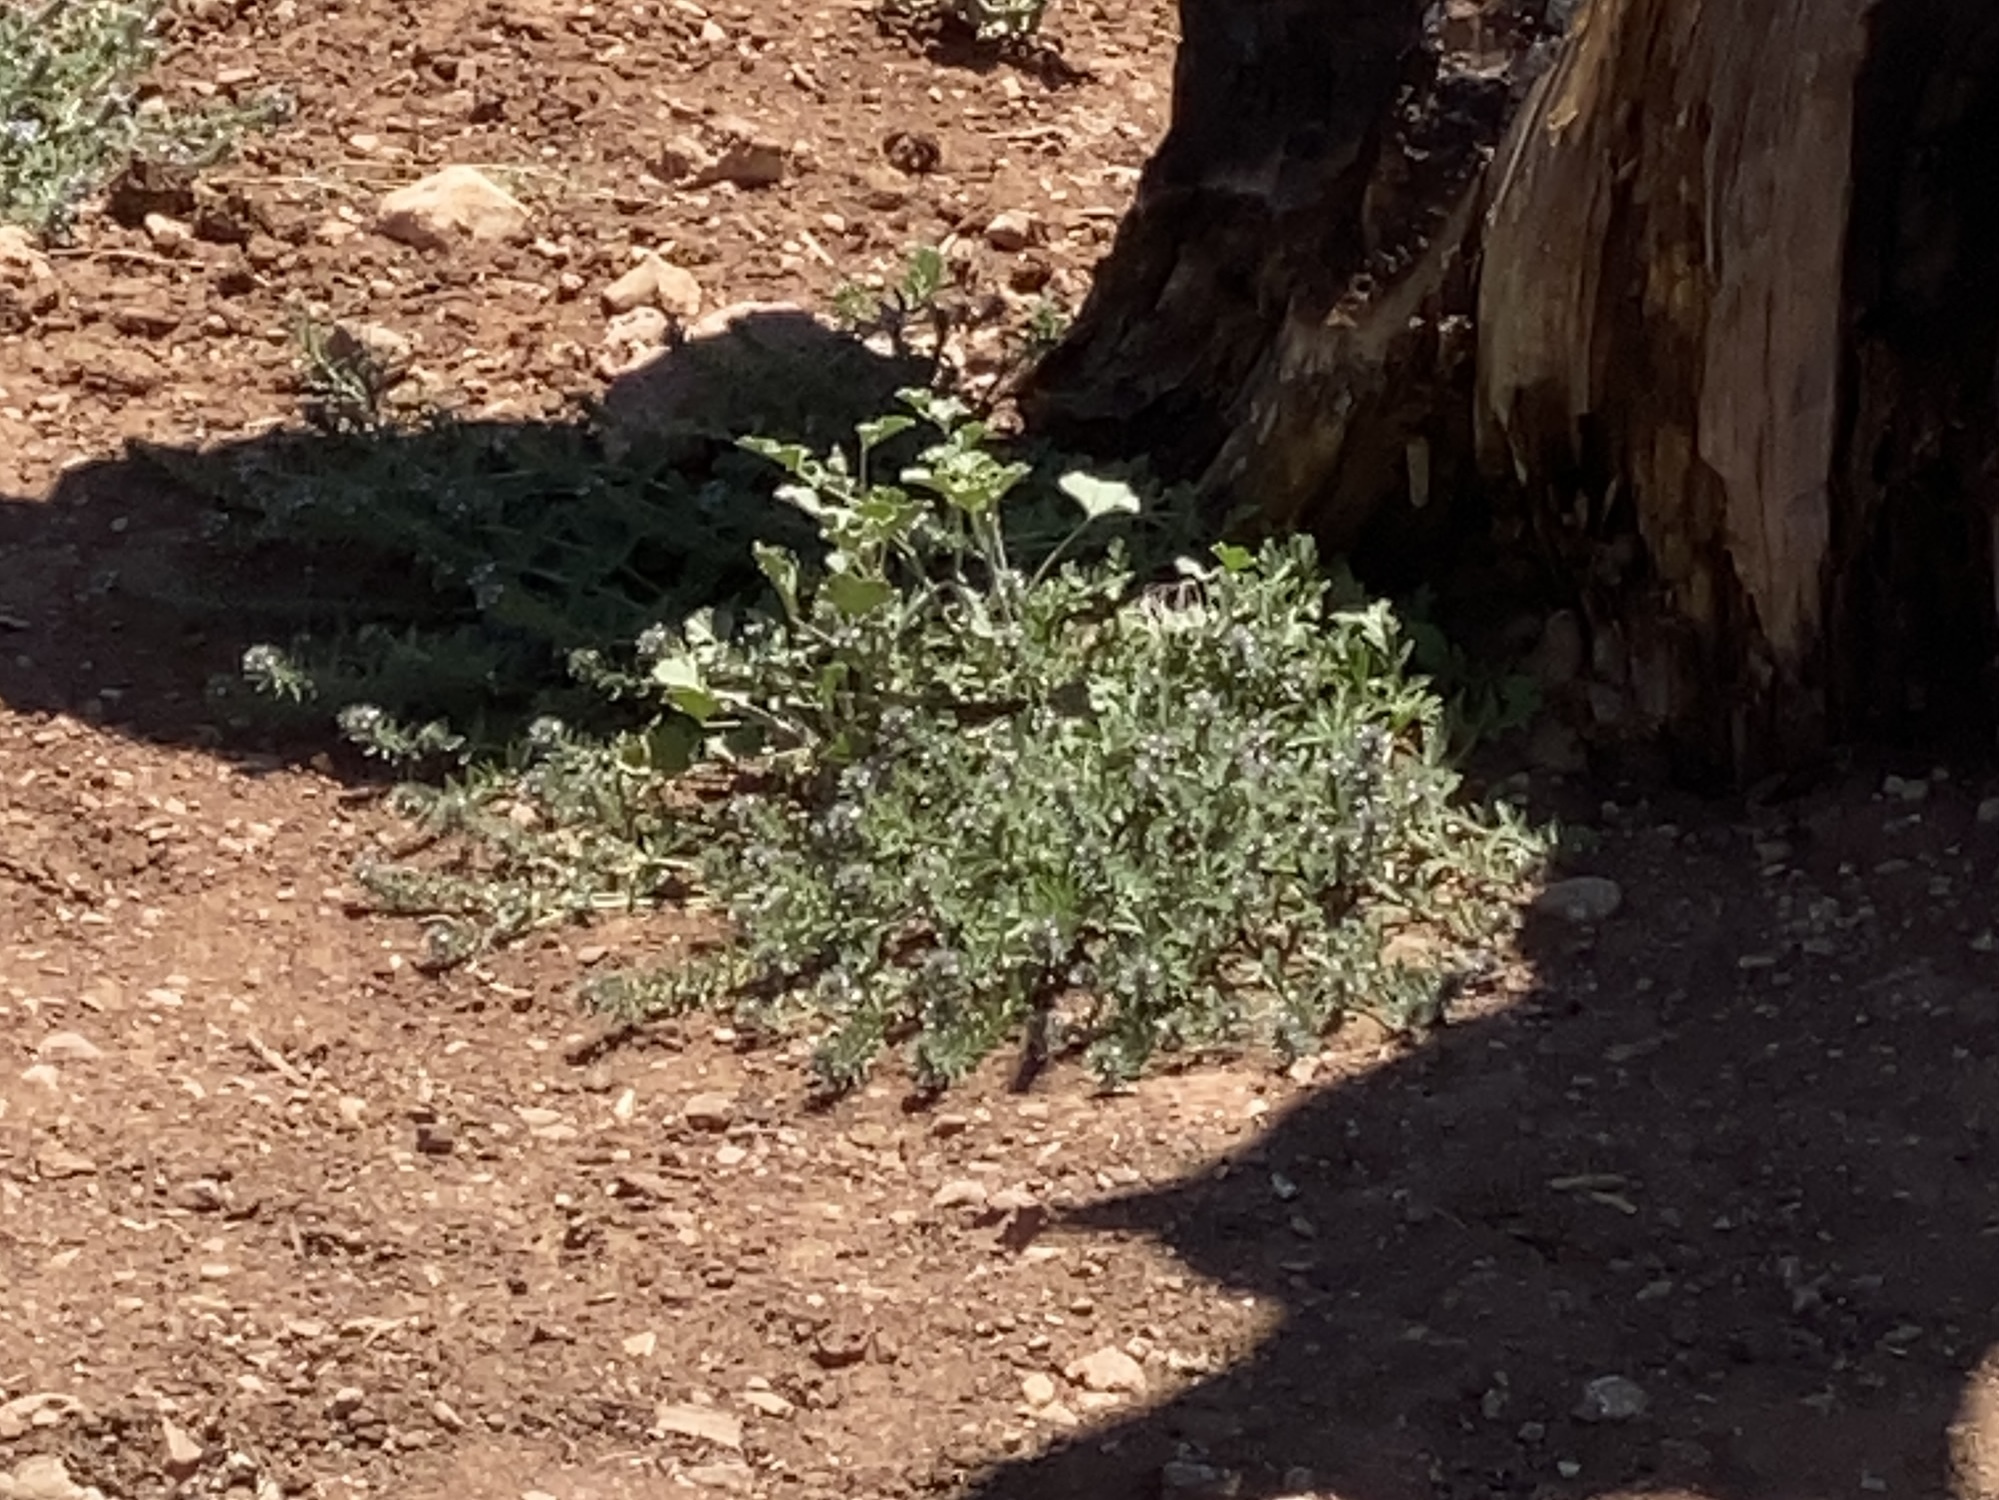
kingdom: Plantae
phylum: Tracheophyta
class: Magnoliopsida
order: Lamiales
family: Verbenaceae
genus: Verbena
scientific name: Verbena bracteata
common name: Bracted vervain
